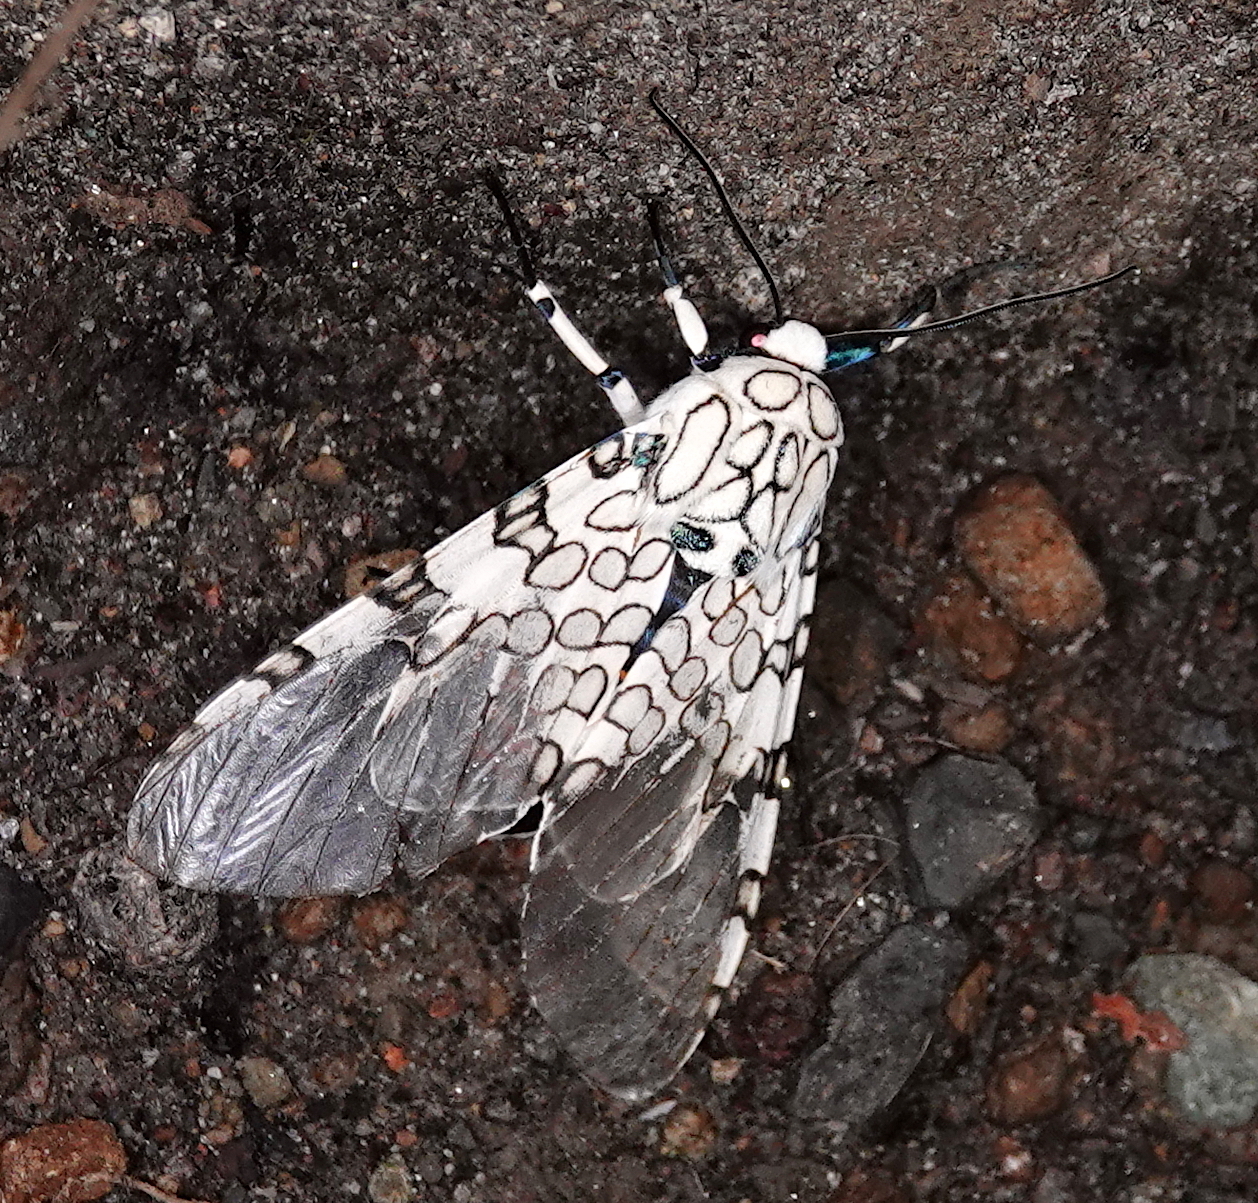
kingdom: Animalia
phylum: Arthropoda
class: Insecta
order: Lepidoptera
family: Erebidae
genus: Hypercompe
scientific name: Hypercompe caudata
